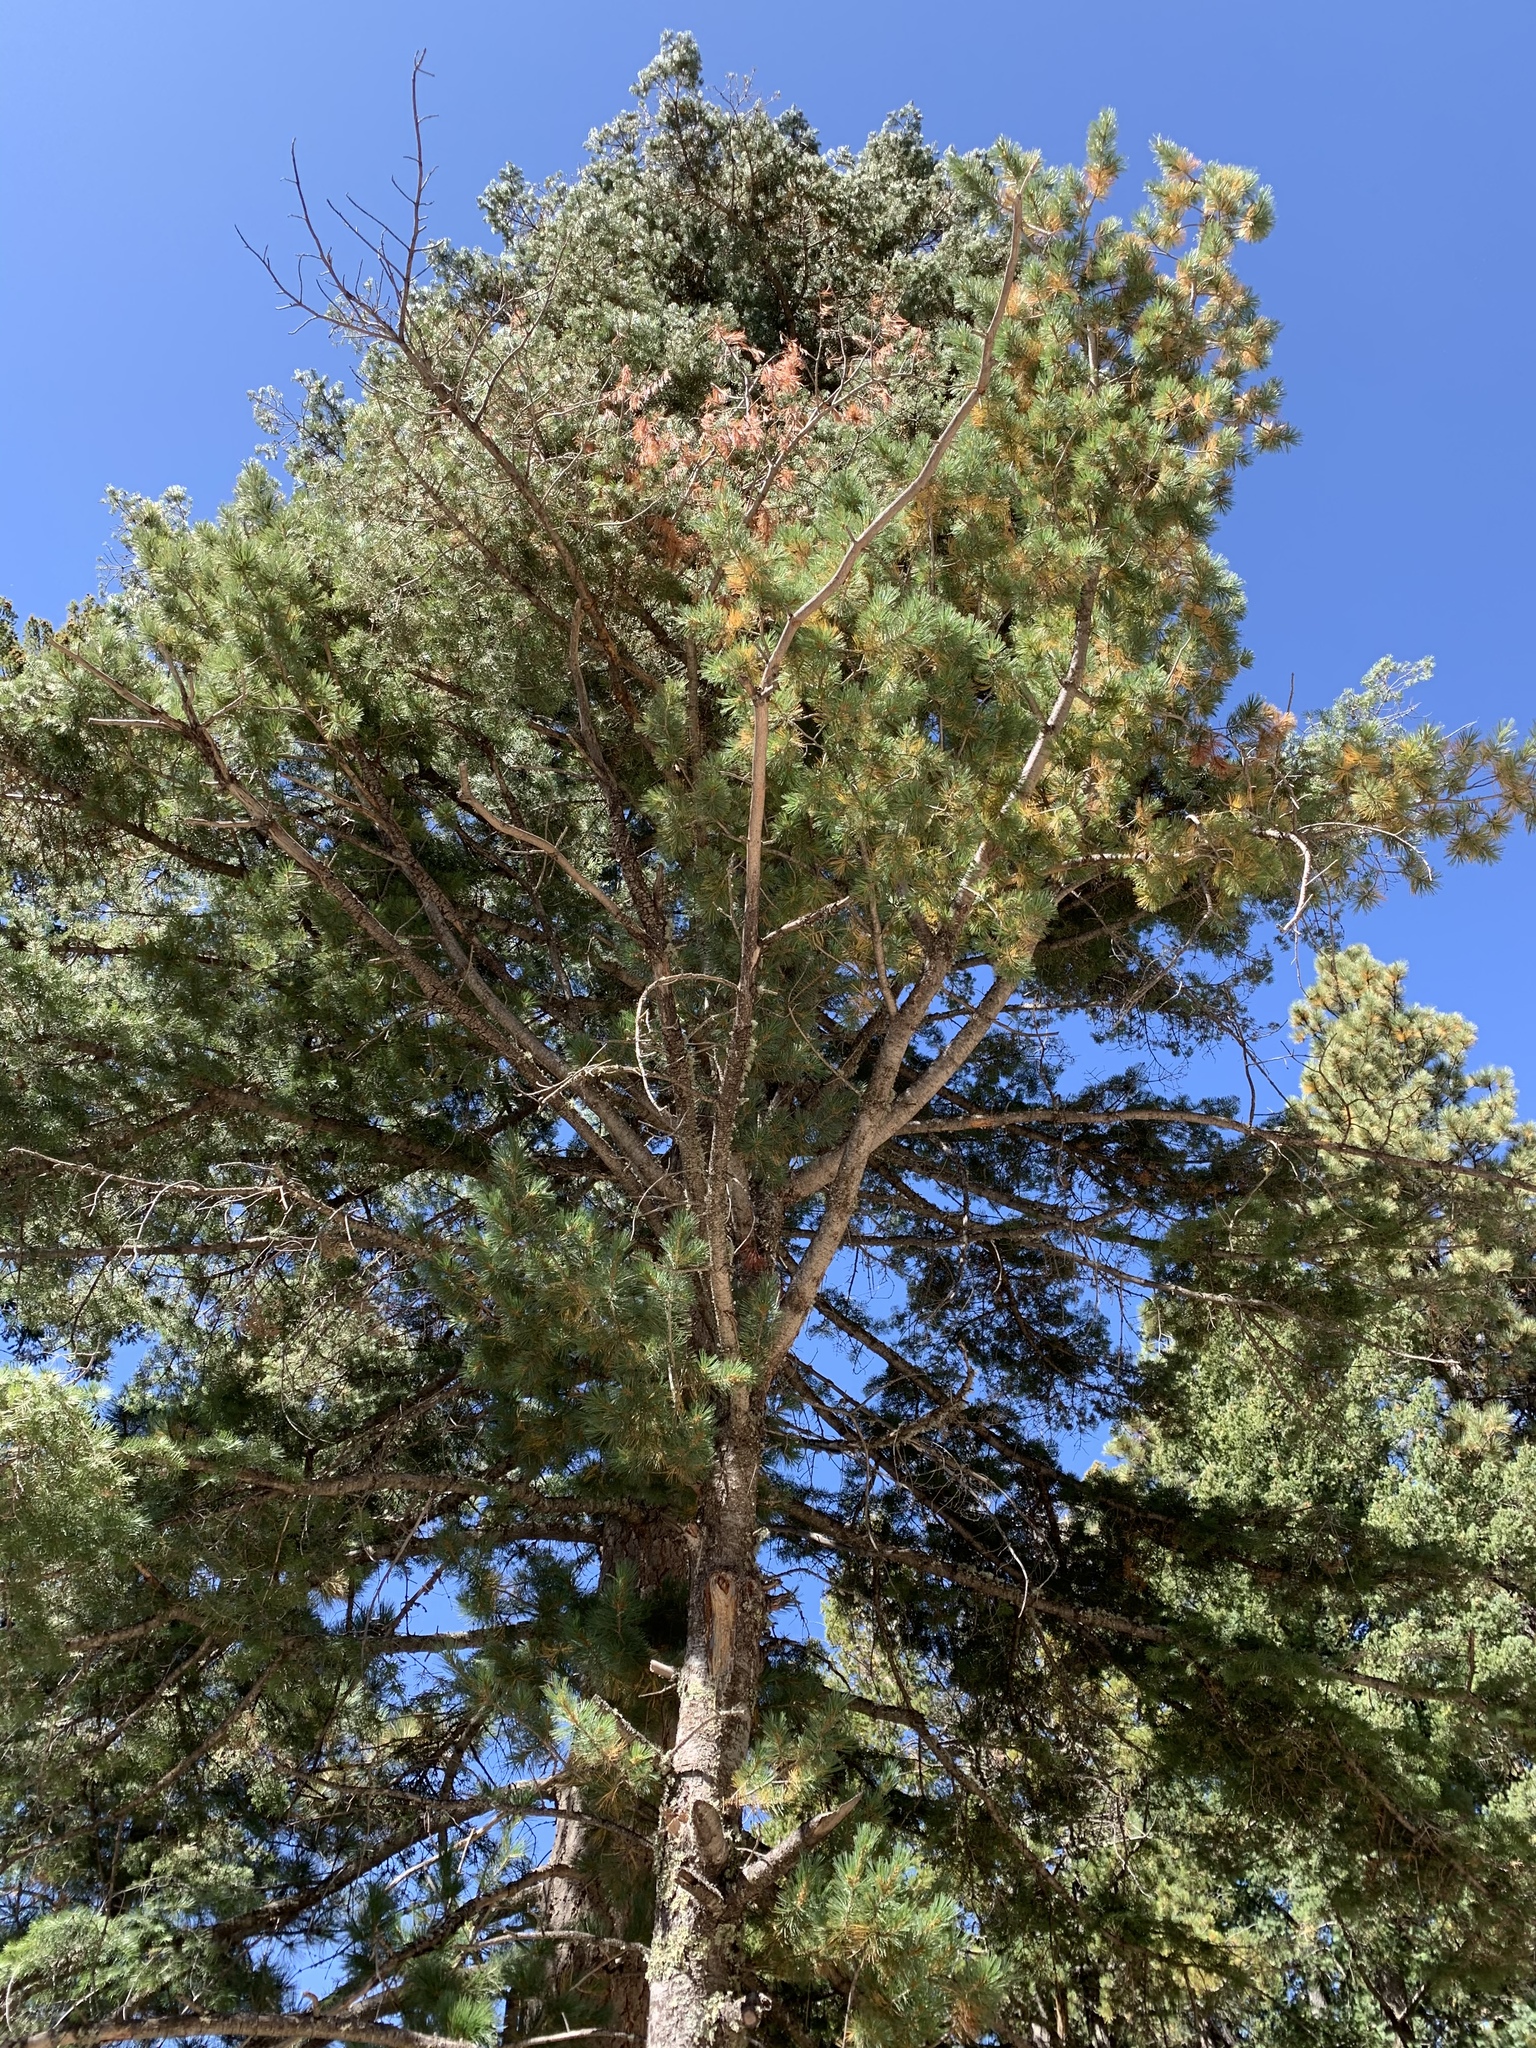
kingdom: Plantae
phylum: Tracheophyta
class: Pinopsida
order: Pinales
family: Pinaceae
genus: Pinus
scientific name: Pinus strobiformis
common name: Southwestern white pine
